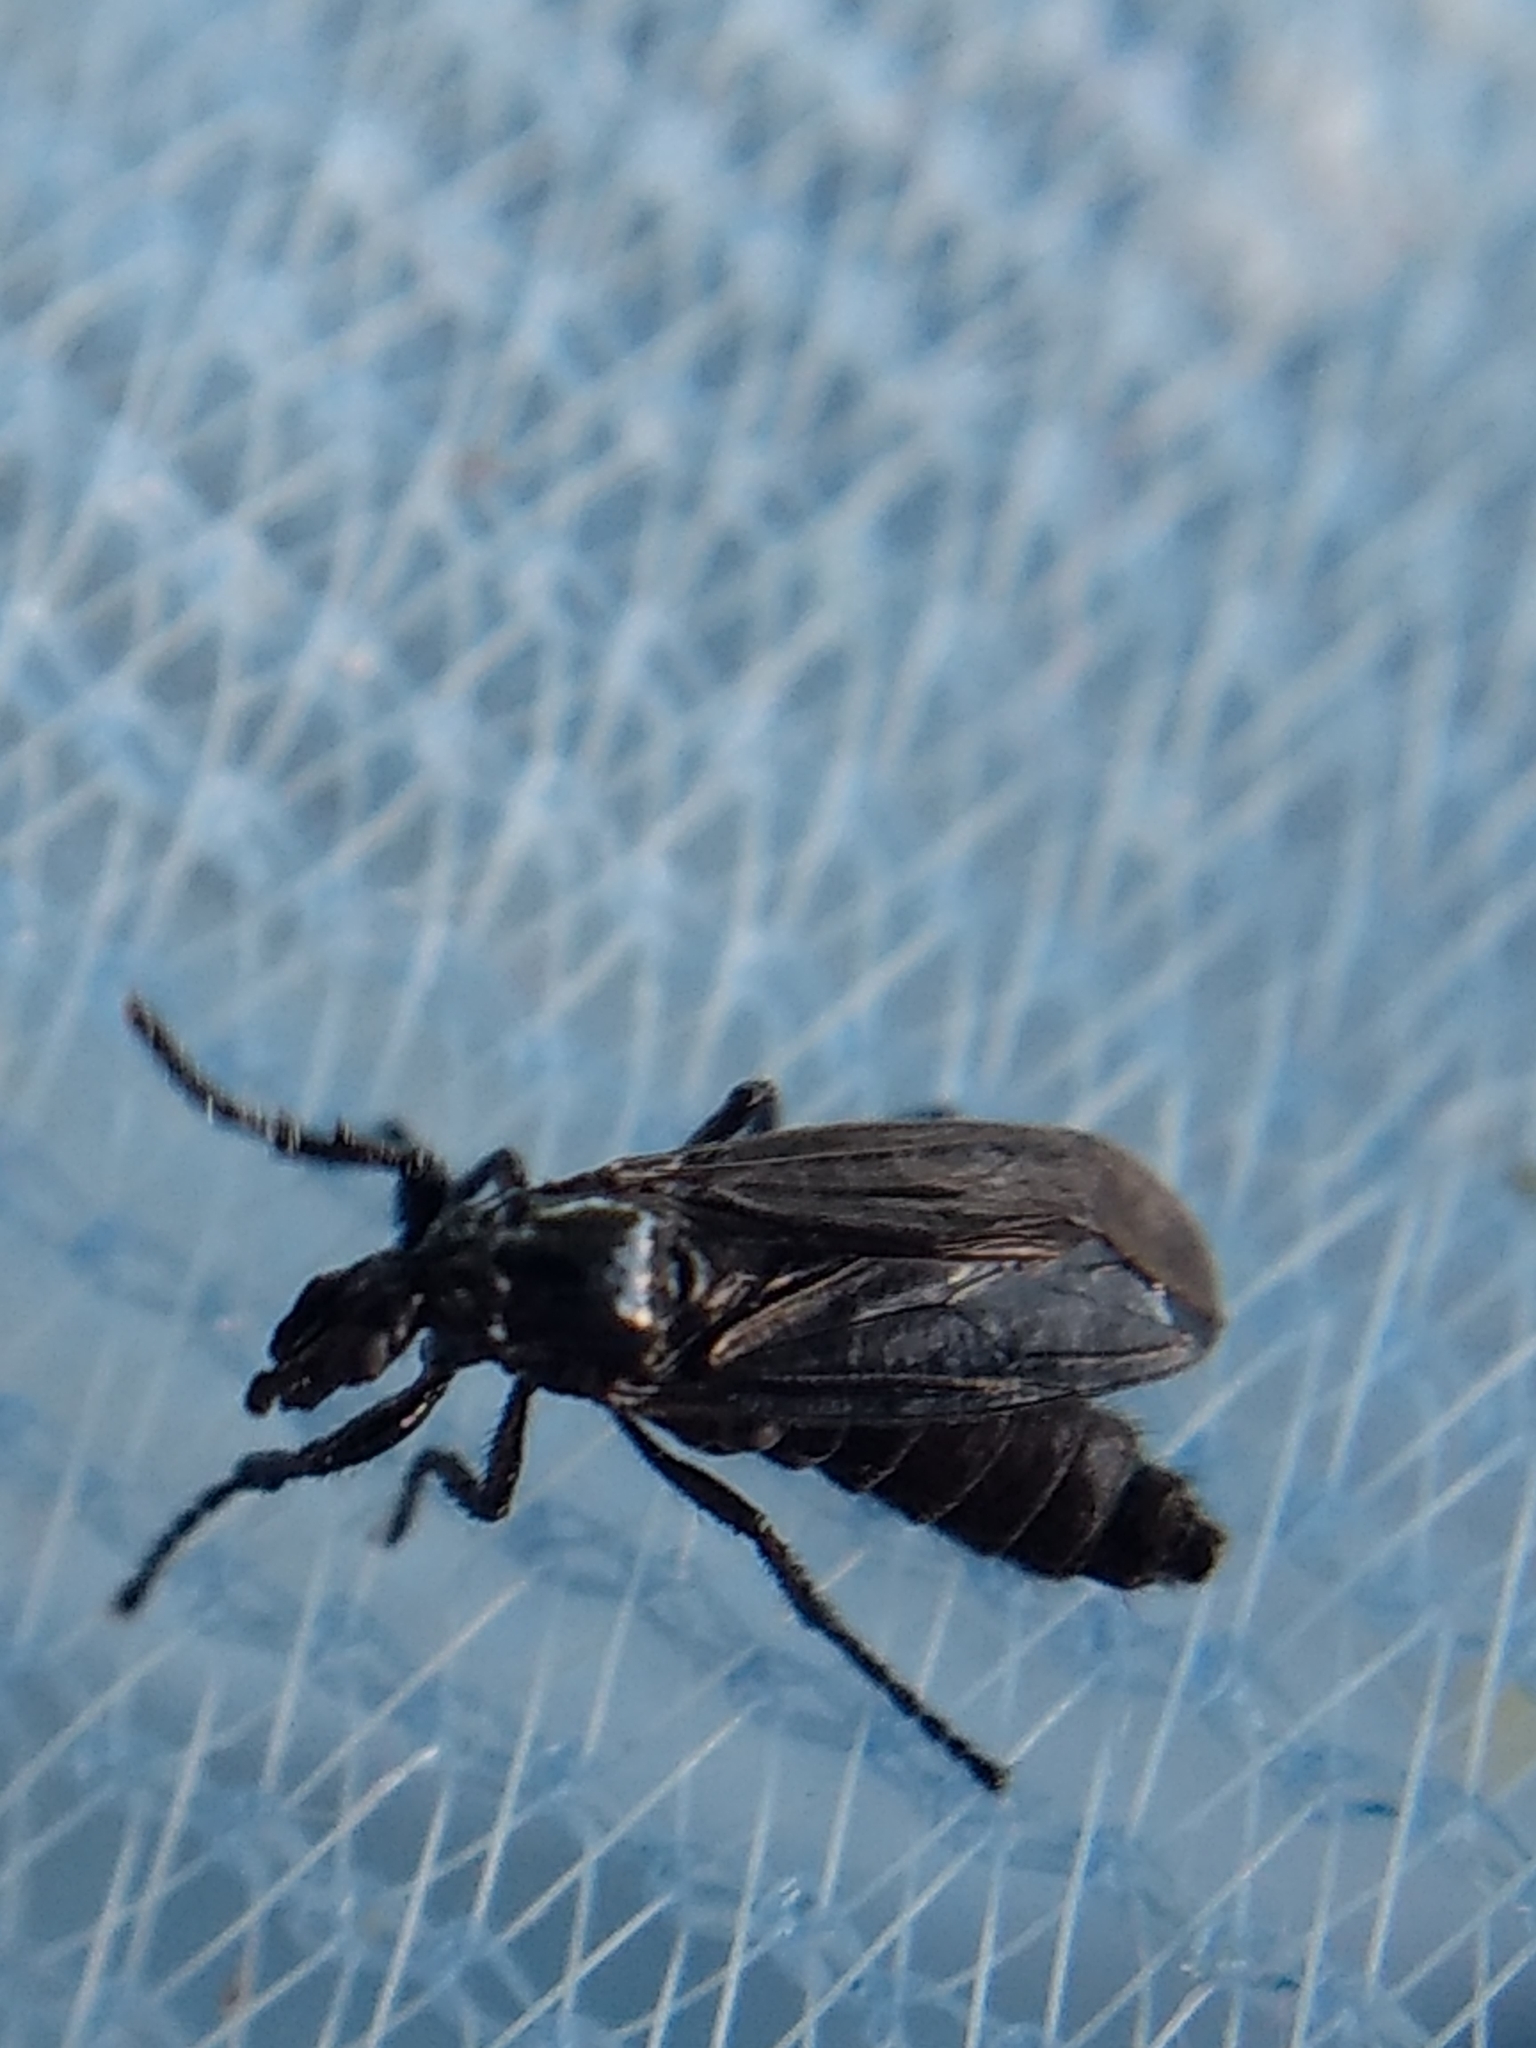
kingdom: Animalia
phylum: Arthropoda
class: Insecta
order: Diptera
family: Bibionidae
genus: Dilophus
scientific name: Dilophus orbatus
